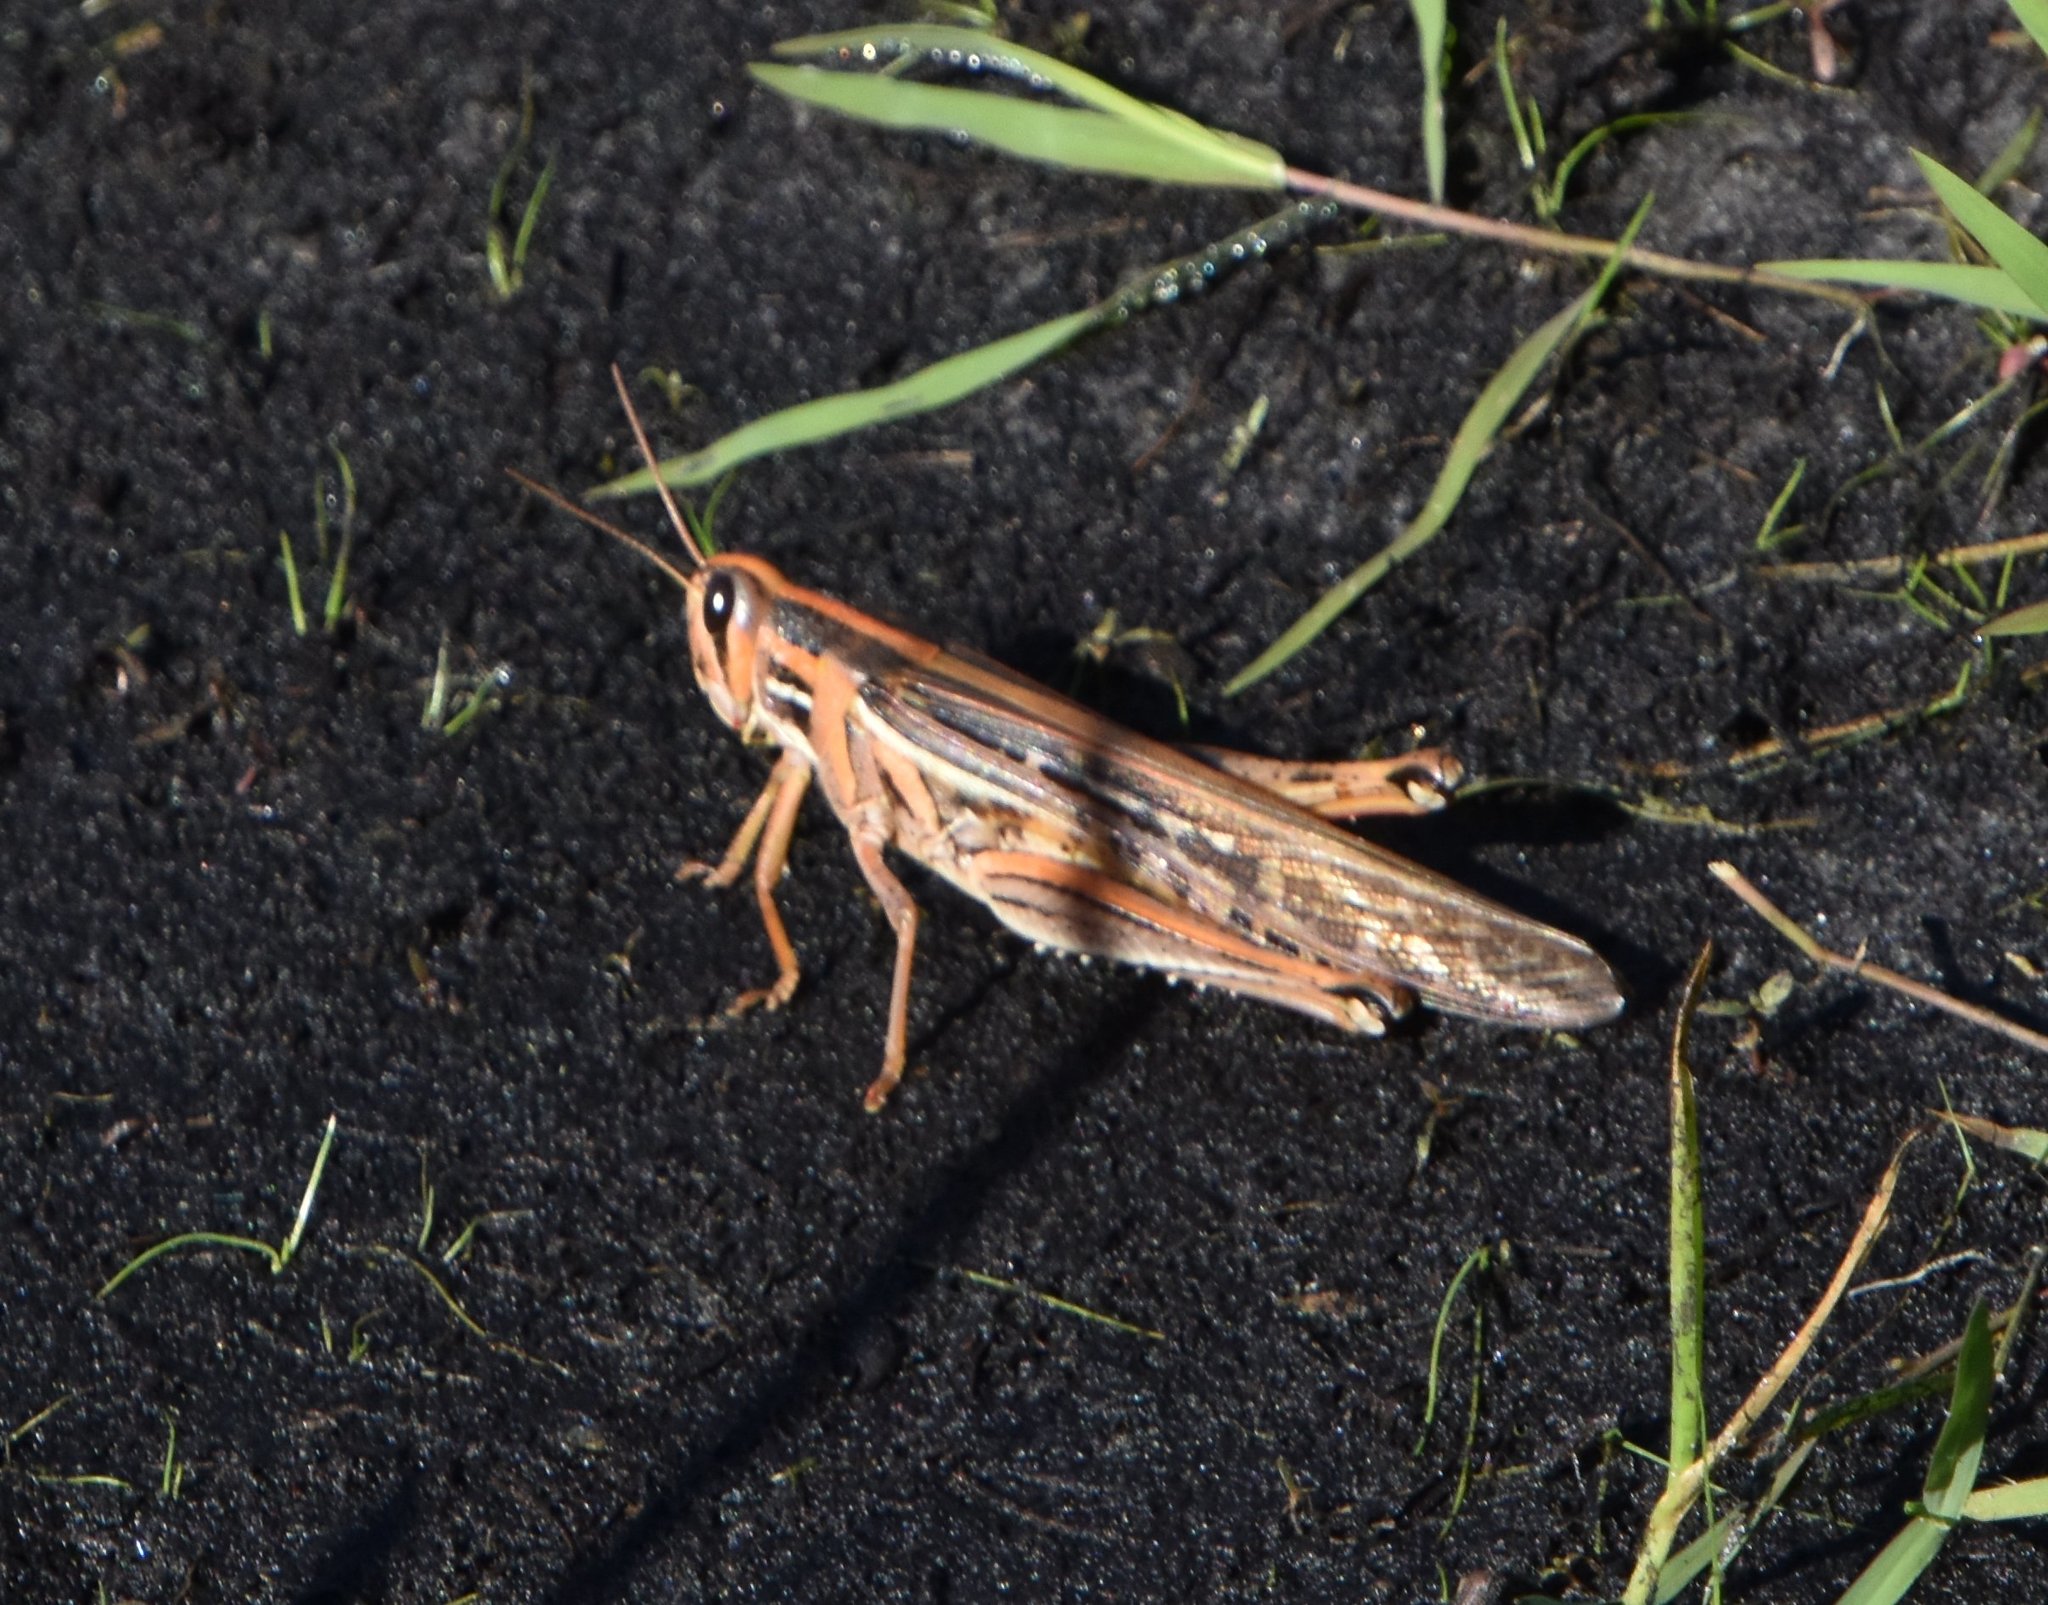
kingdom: Animalia
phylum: Arthropoda
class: Insecta
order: Orthoptera
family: Acrididae
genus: Schistocerca
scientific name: Schistocerca americana
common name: American bird locust
